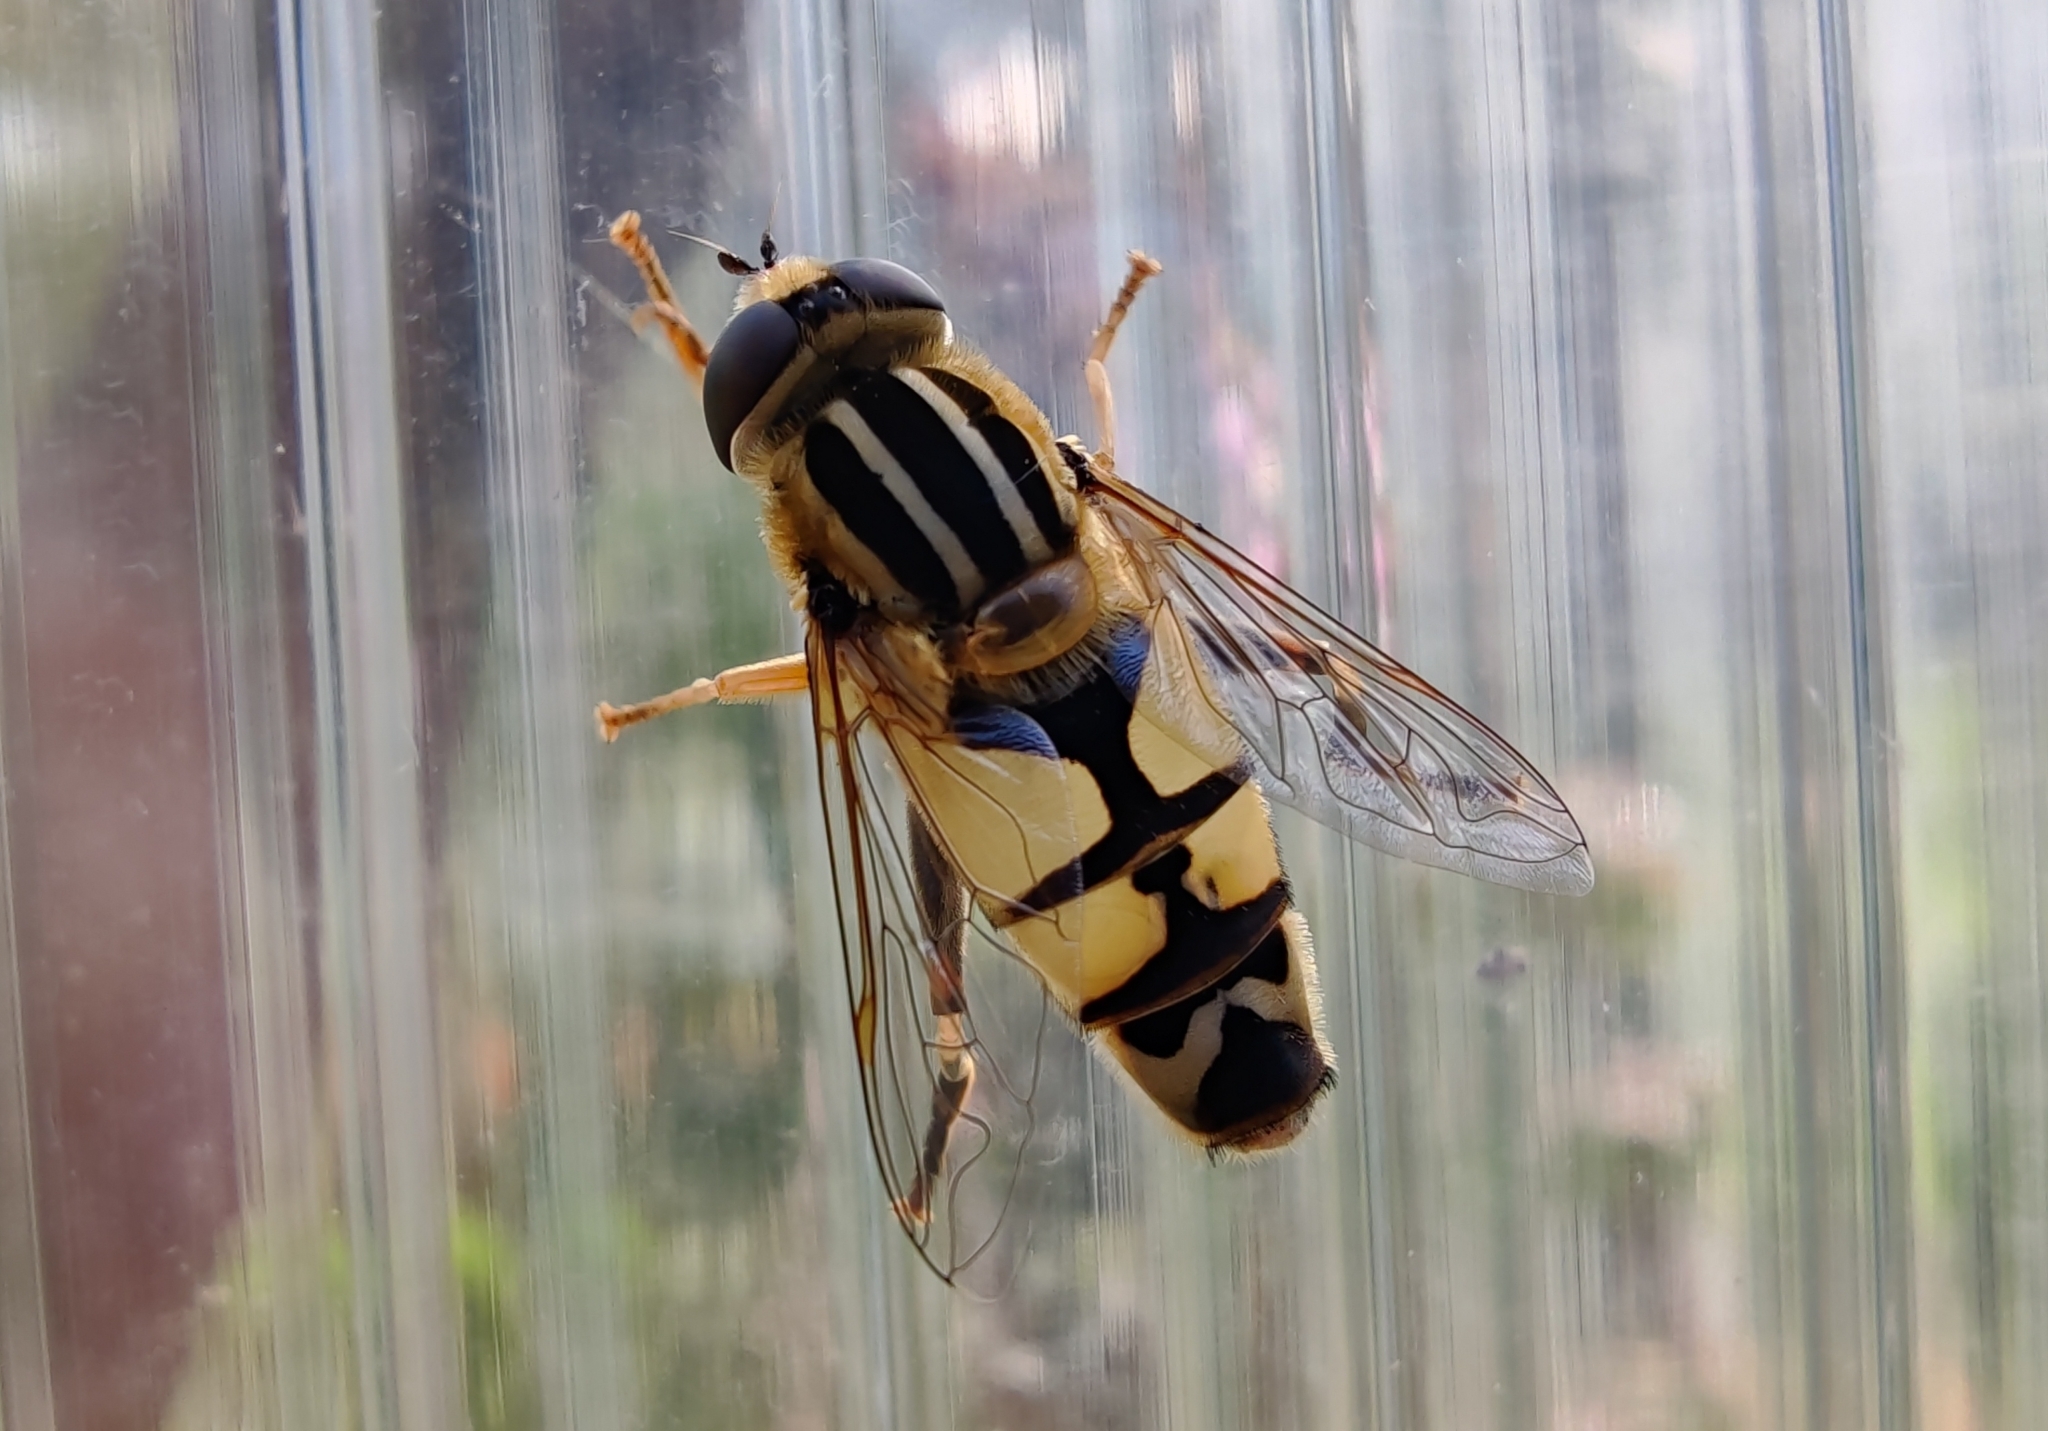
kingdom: Animalia
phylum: Arthropoda
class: Insecta
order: Diptera
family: Syrphidae
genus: Helophilus
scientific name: Helophilus trivittatus
